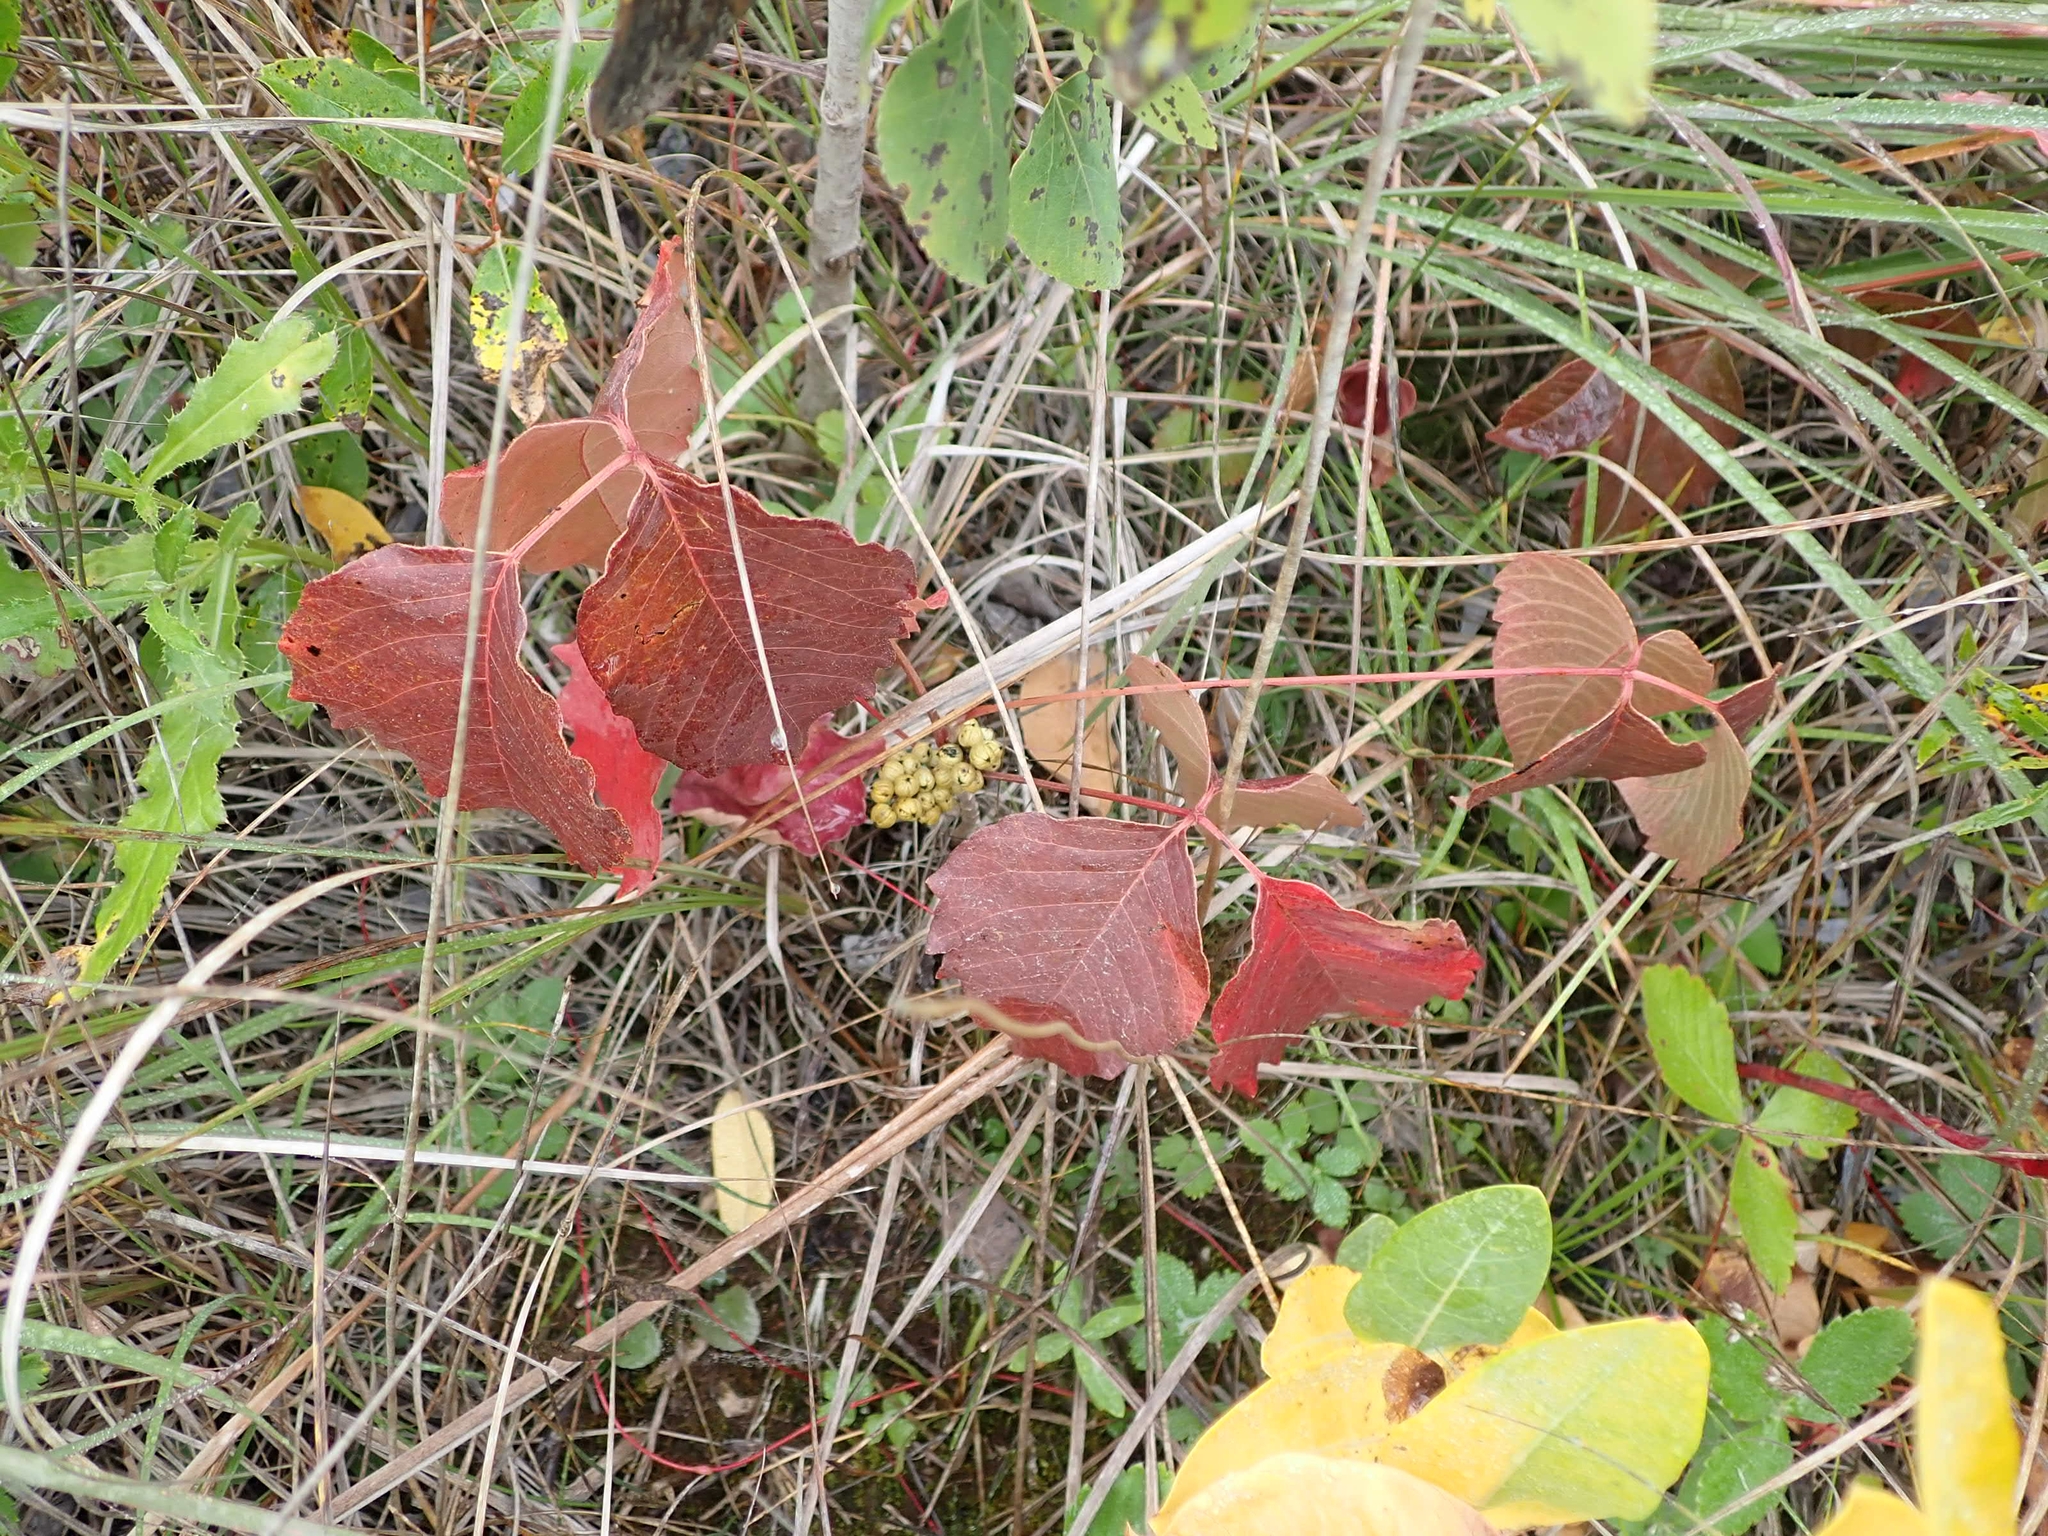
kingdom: Plantae
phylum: Tracheophyta
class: Magnoliopsida
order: Sapindales
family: Anacardiaceae
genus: Toxicodendron
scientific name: Toxicodendron rydbergii
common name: Rydberg's poison-ivy
